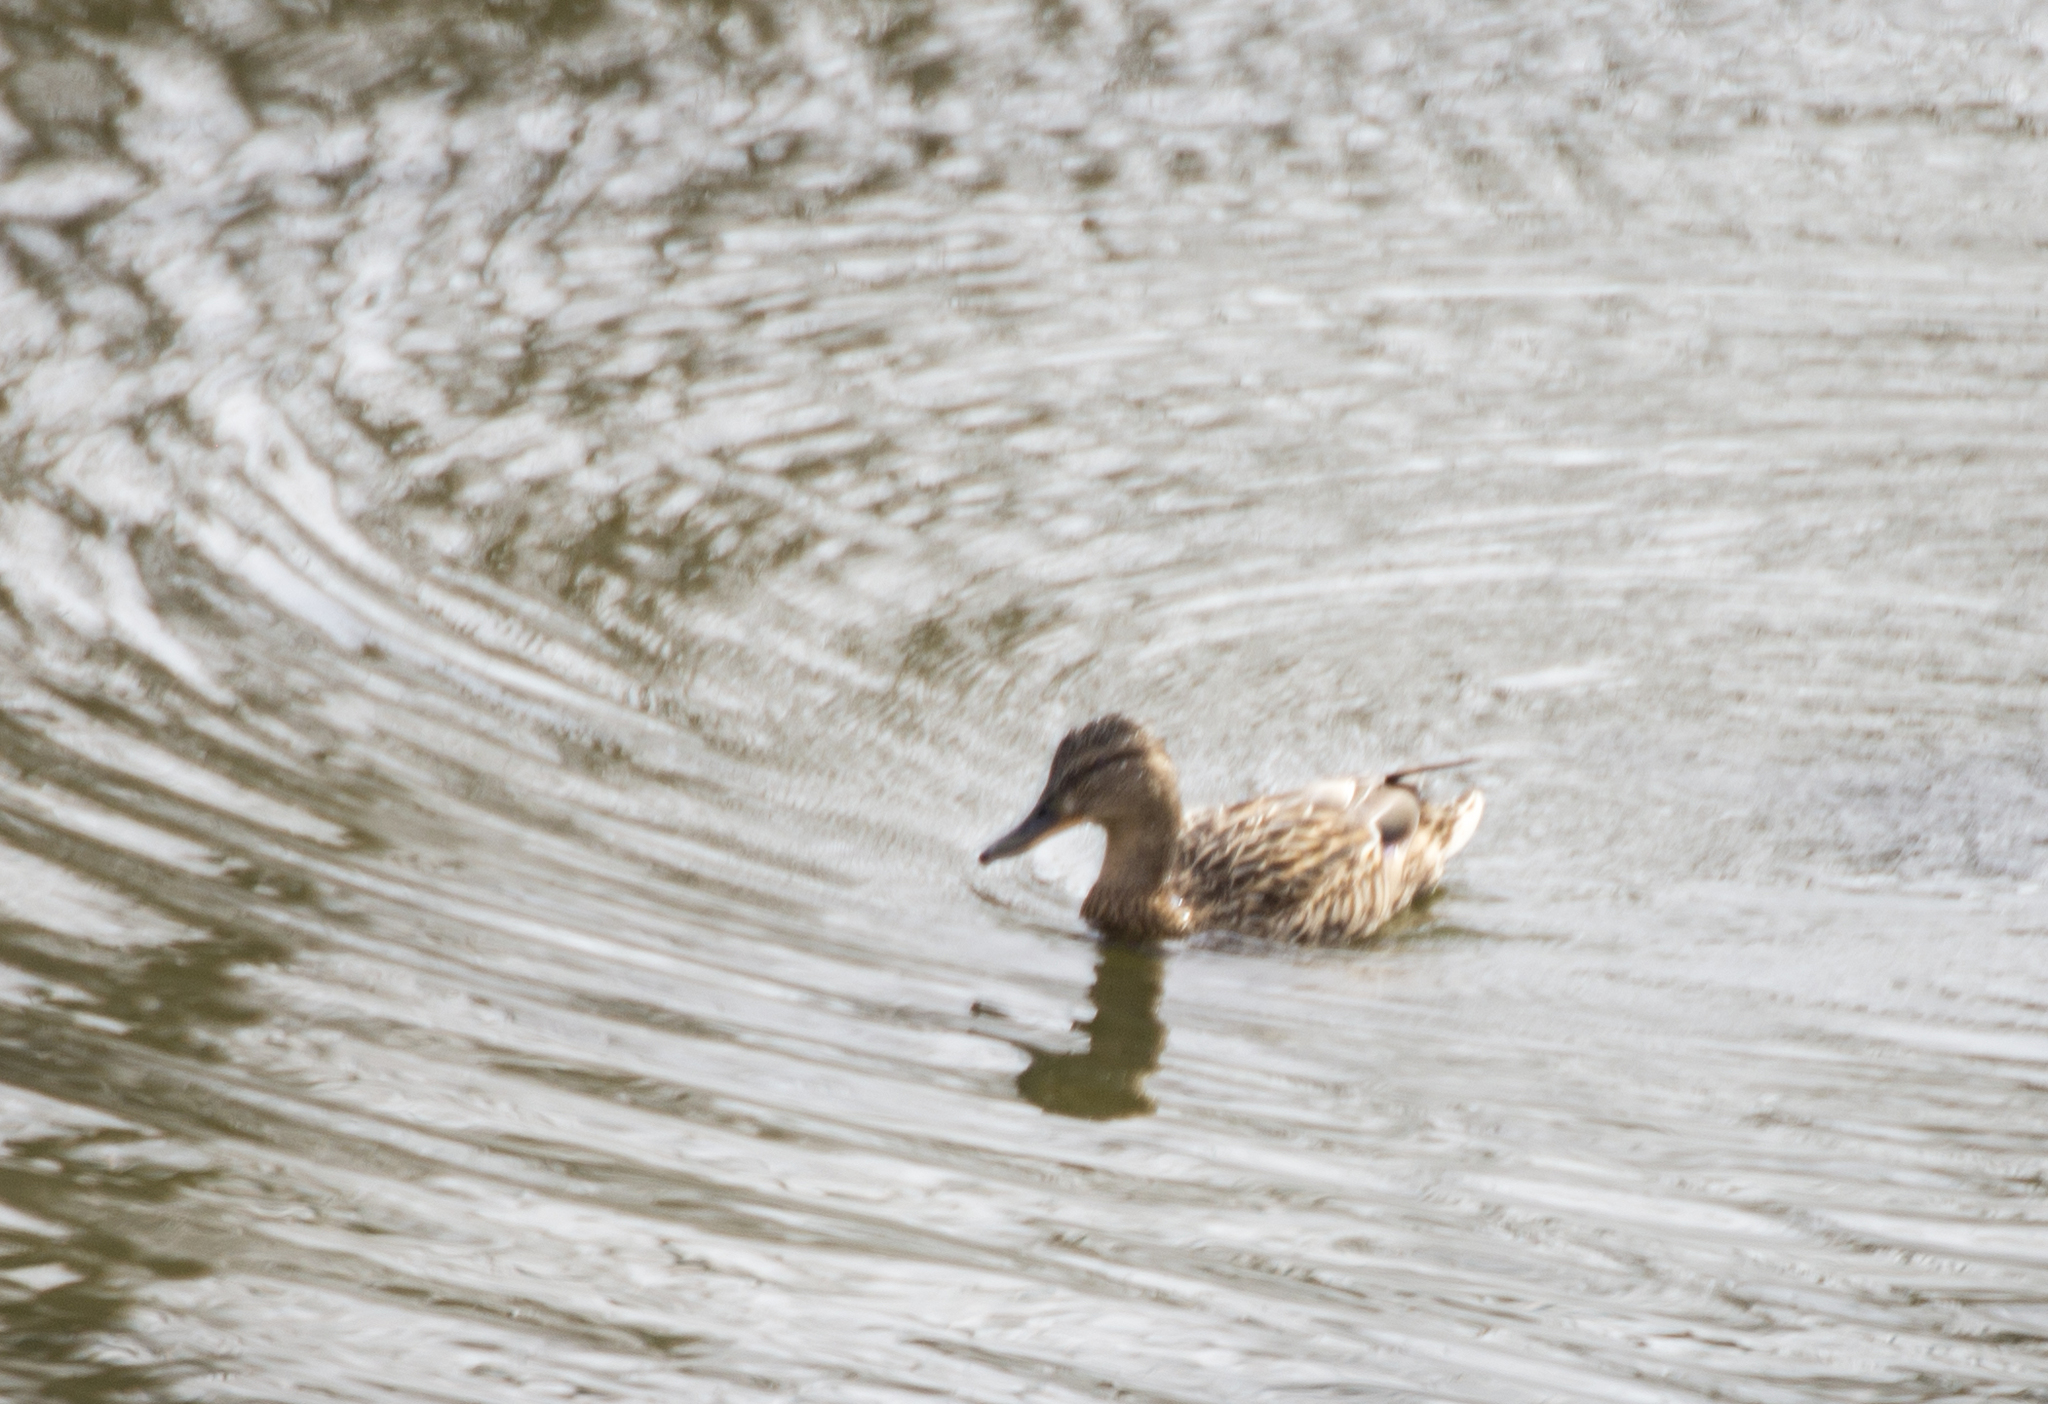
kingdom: Animalia
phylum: Chordata
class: Aves
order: Anseriformes
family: Anatidae
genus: Anas
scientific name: Anas platyrhynchos
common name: Mallard
